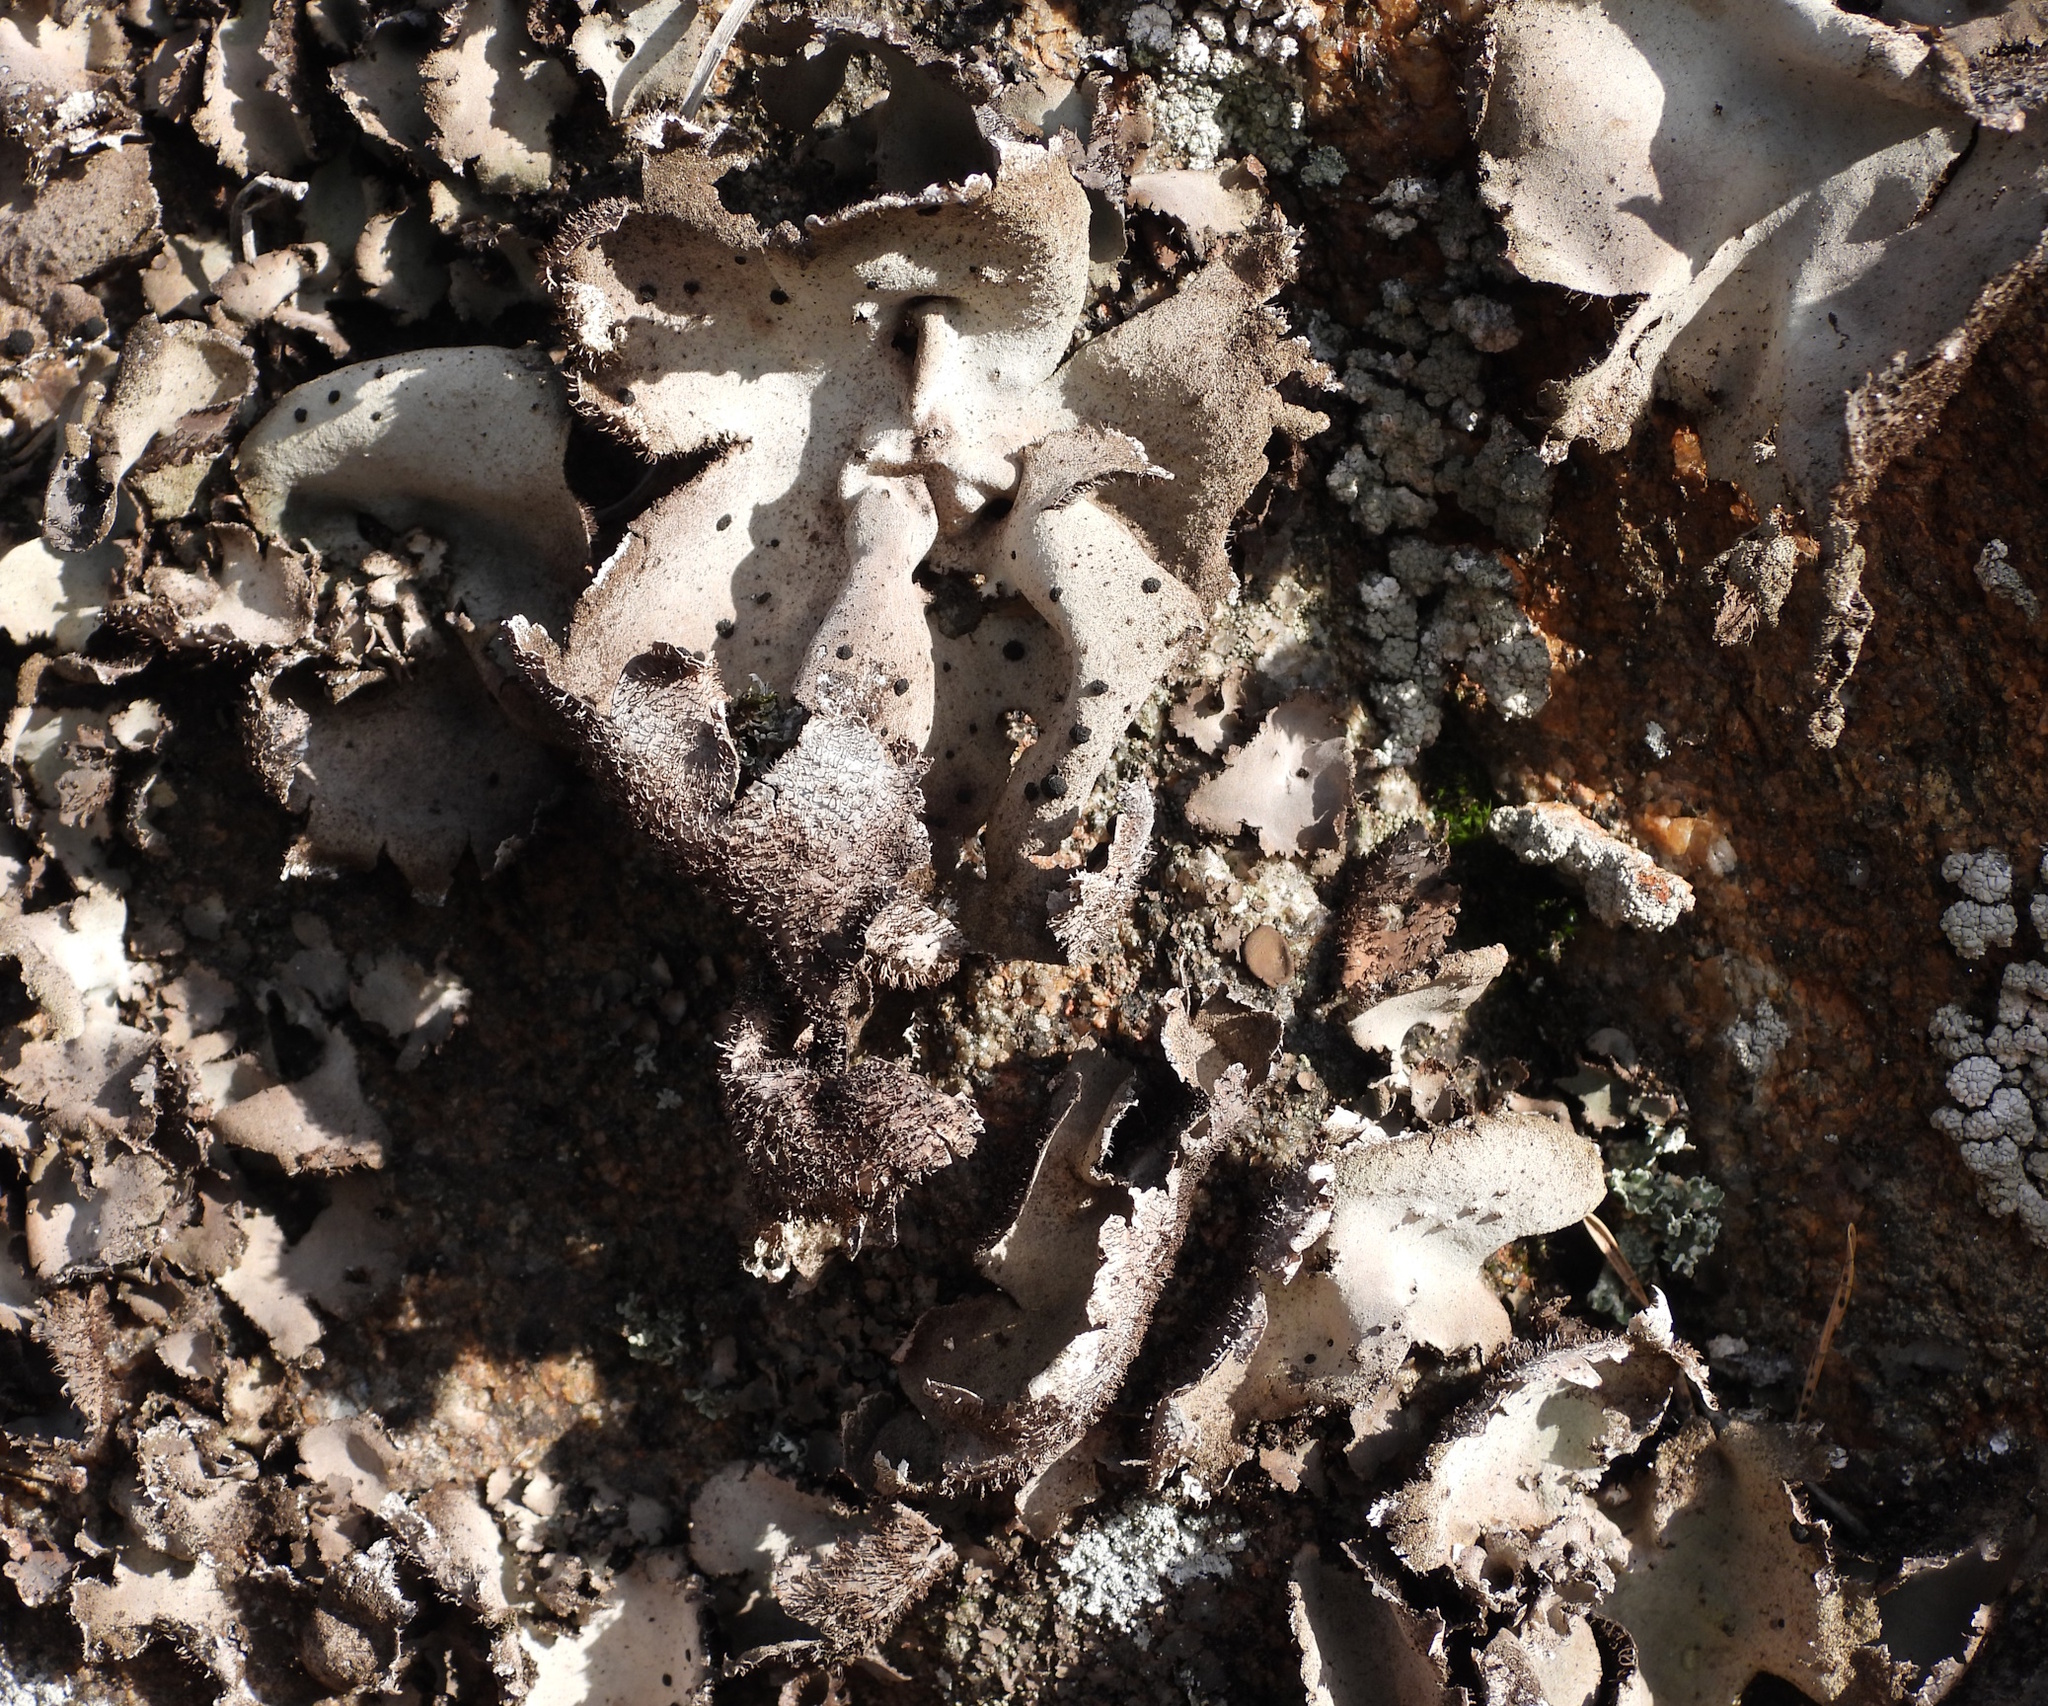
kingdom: Fungi
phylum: Ascomycota
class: Lecanoromycetes
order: Umbilicariales
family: Umbilicariaceae
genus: Umbilicaria
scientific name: Umbilicaria hirsuta
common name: Granulating rocktripe lichen
